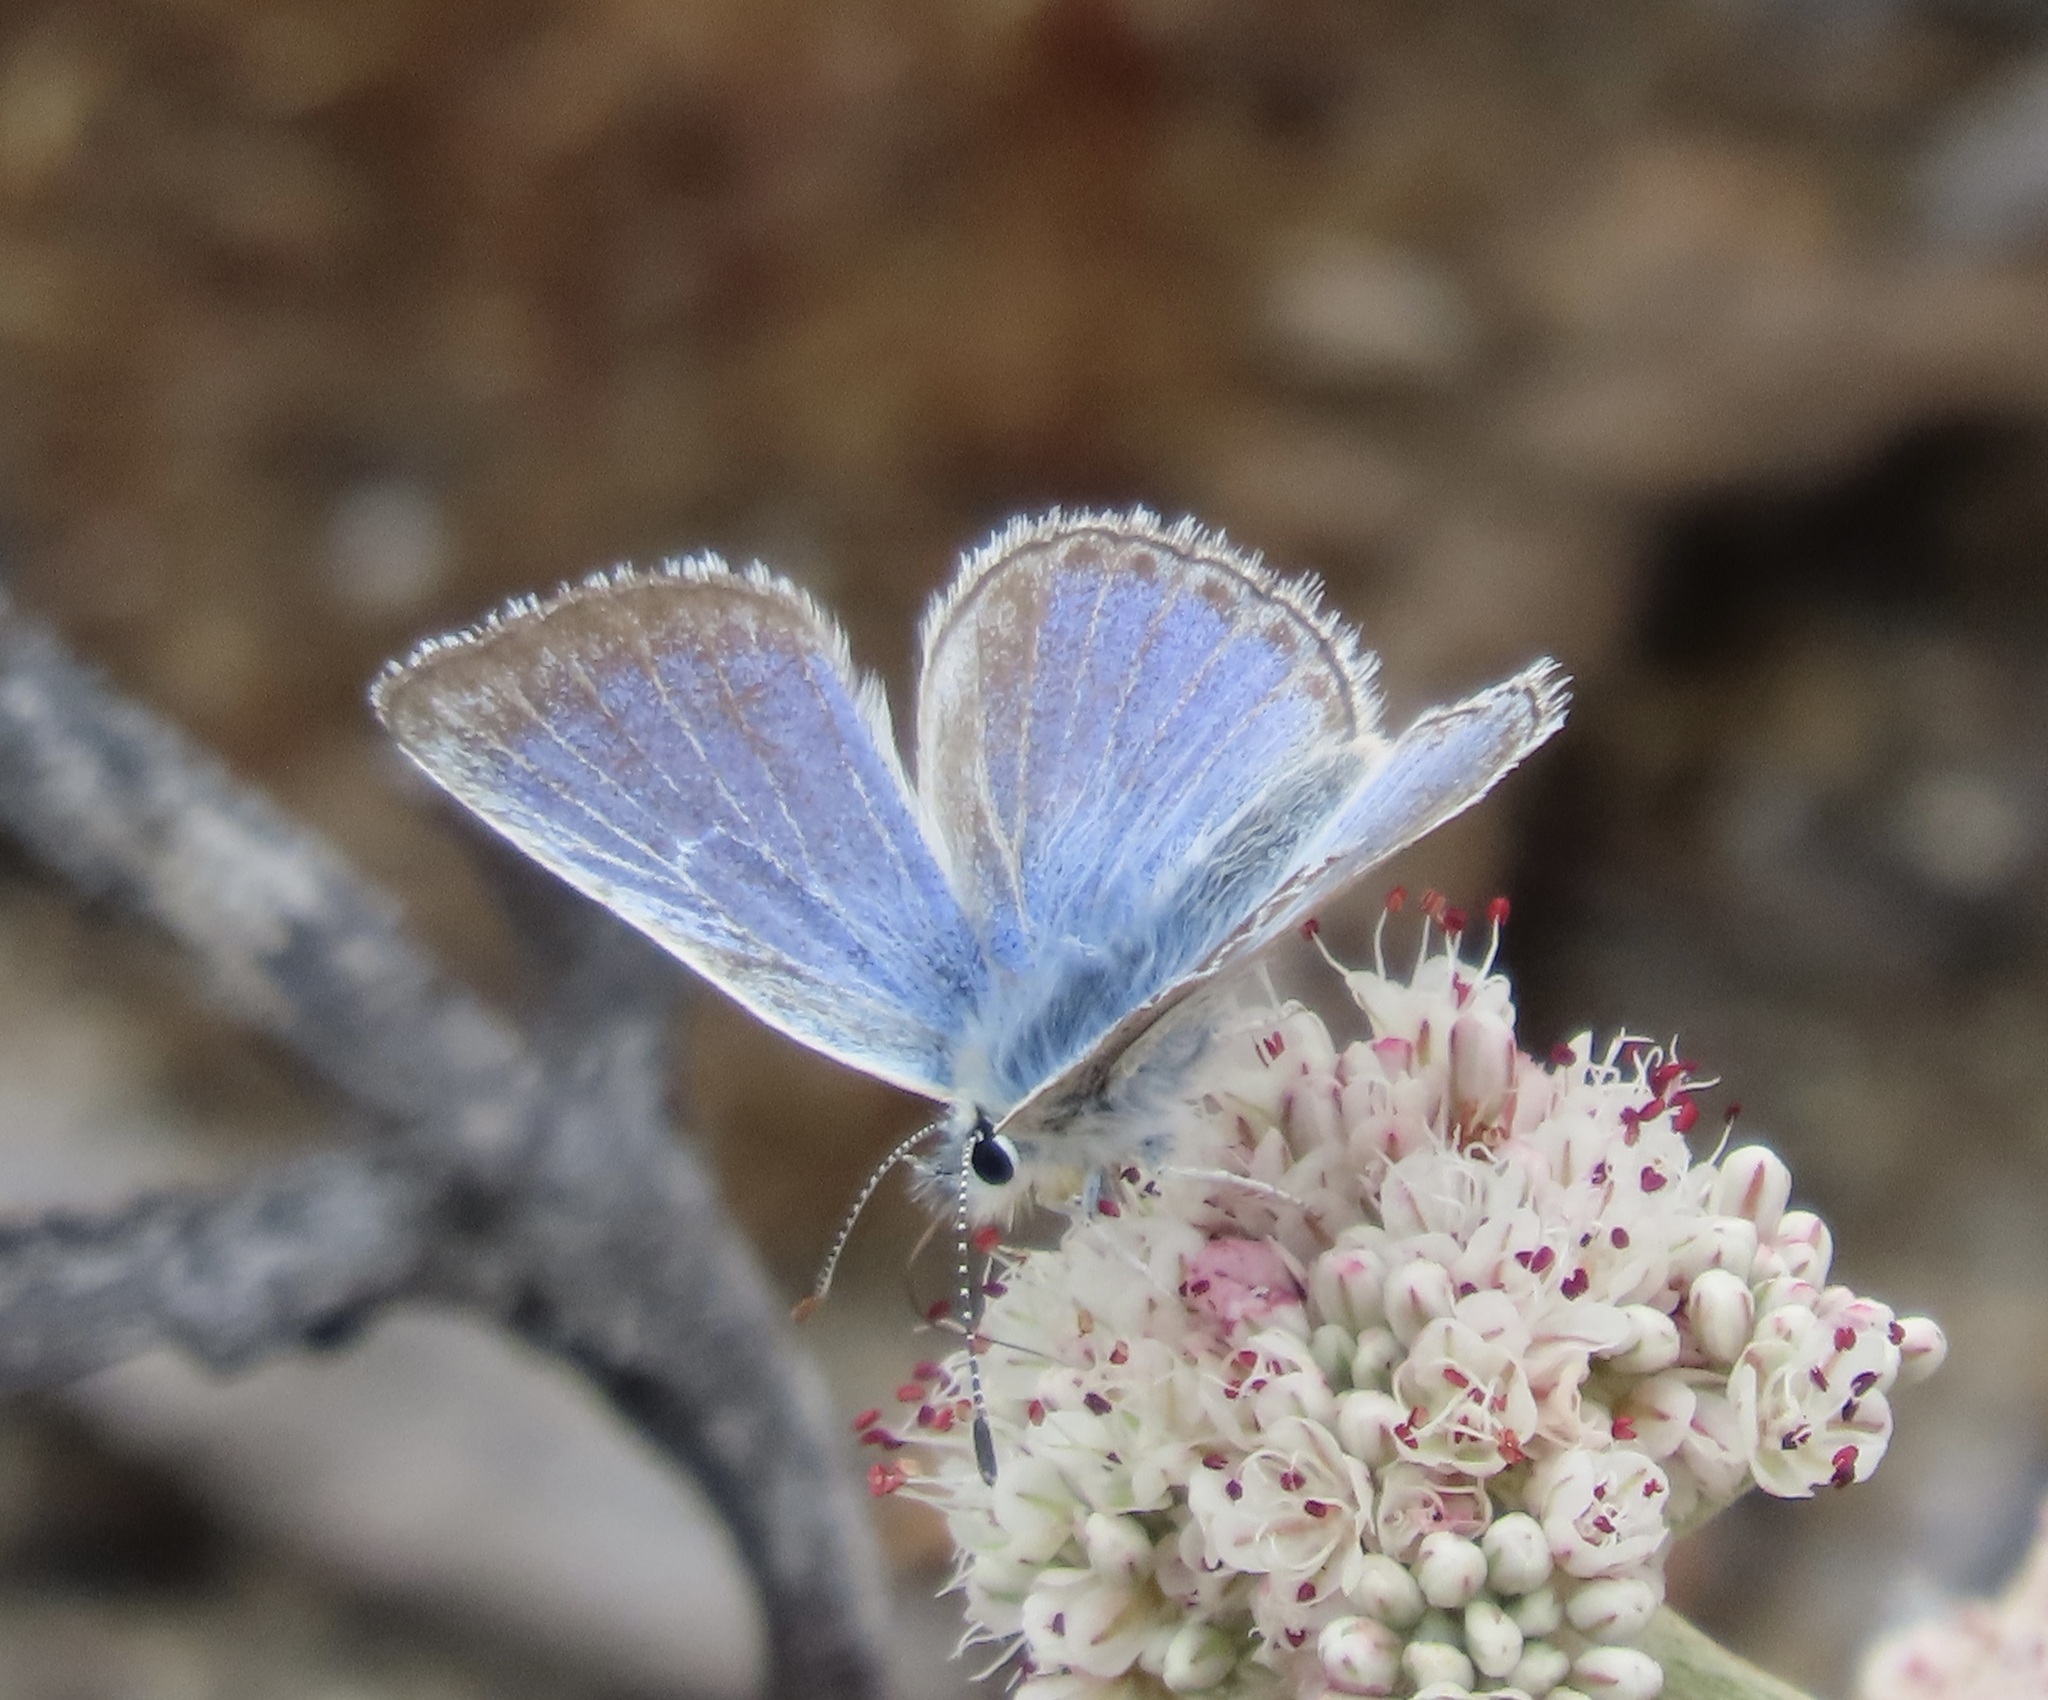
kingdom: Animalia
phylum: Arthropoda
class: Insecta
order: Lepidoptera
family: Lycaenidae
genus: Icaricia
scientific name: Icaricia icarioides
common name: Boisduval's blue
